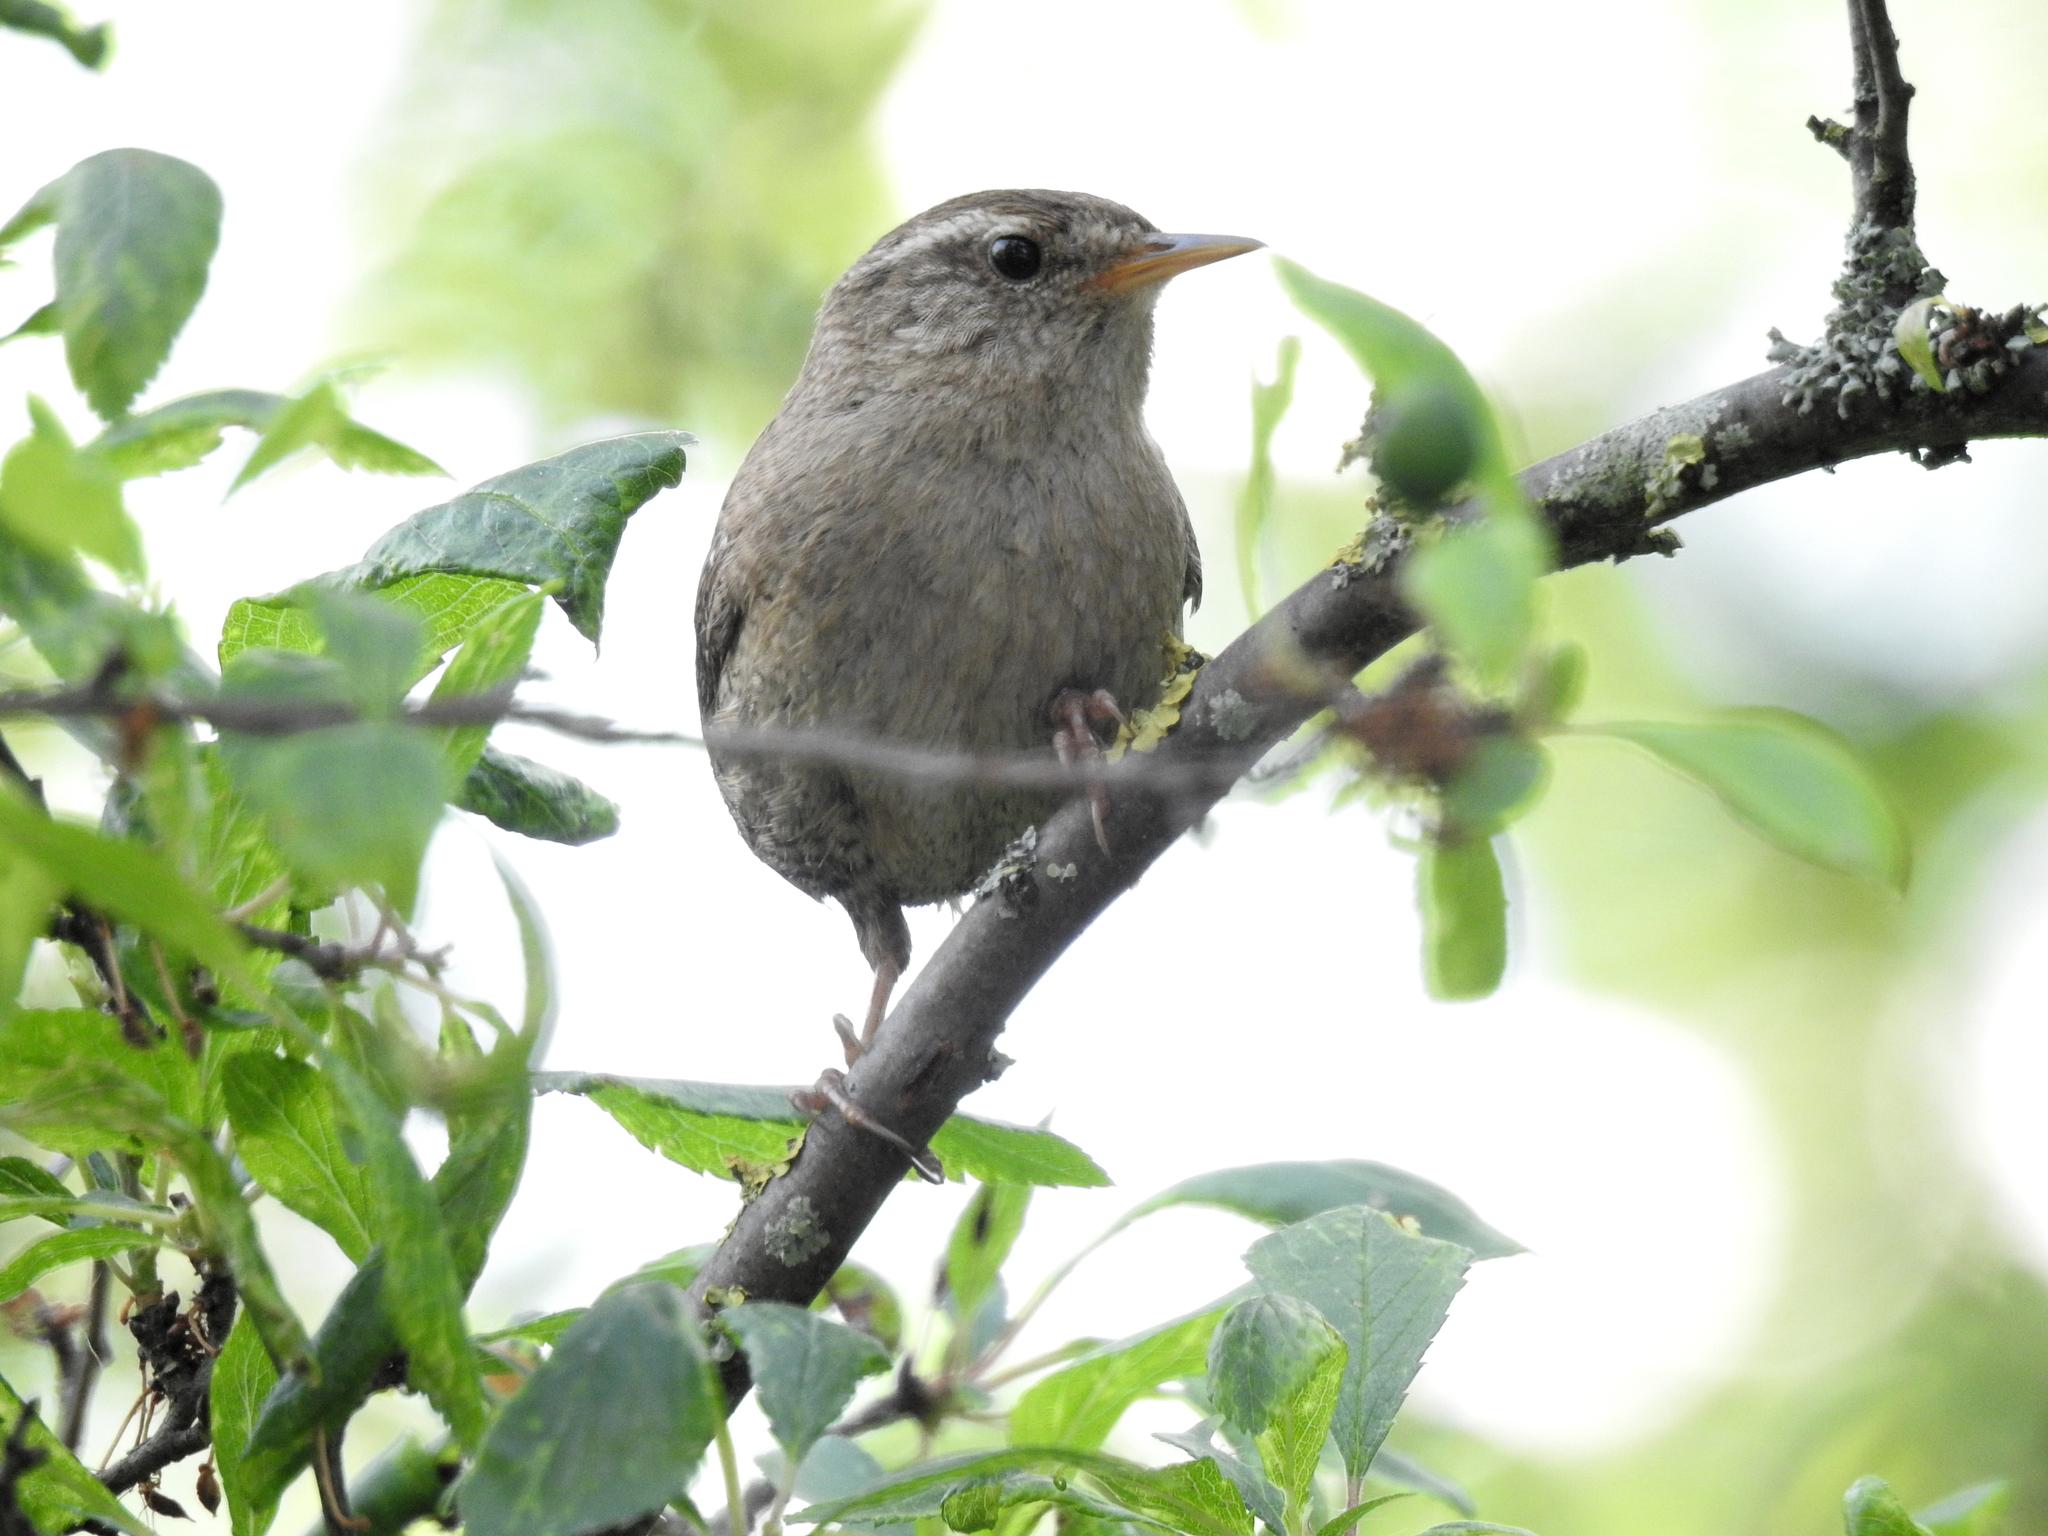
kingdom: Animalia
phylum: Chordata
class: Aves
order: Passeriformes
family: Troglodytidae
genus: Troglodytes
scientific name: Troglodytes troglodytes
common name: Eurasian wren
